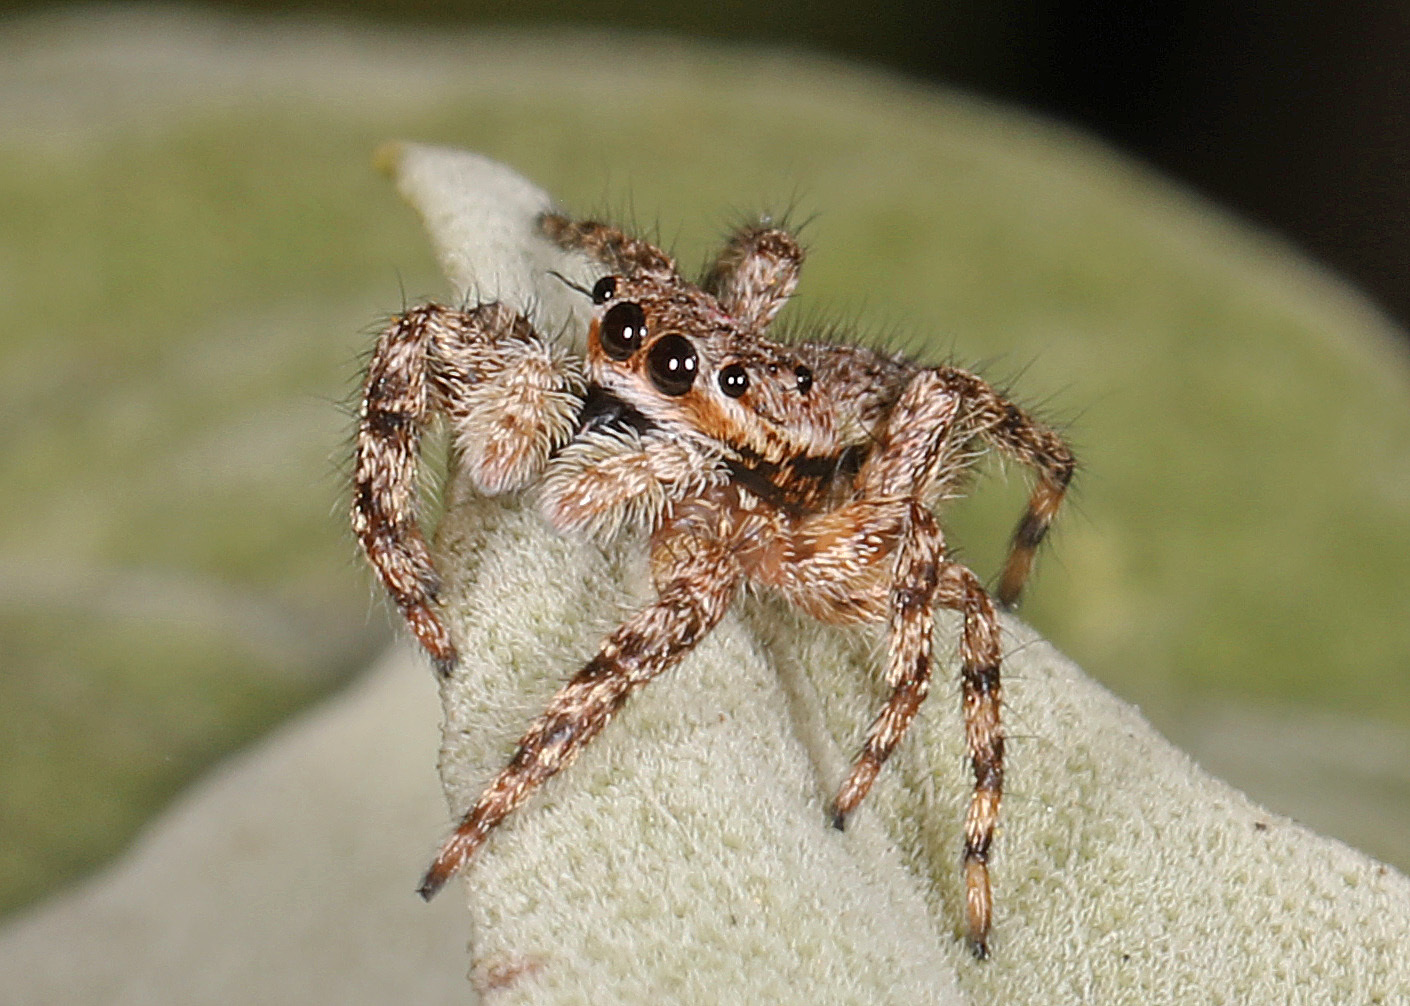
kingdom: Animalia
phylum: Arthropoda
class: Arachnida
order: Araneae
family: Salticidae
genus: Platycryptus
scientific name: Platycryptus undatus
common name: Tan jumping spider
